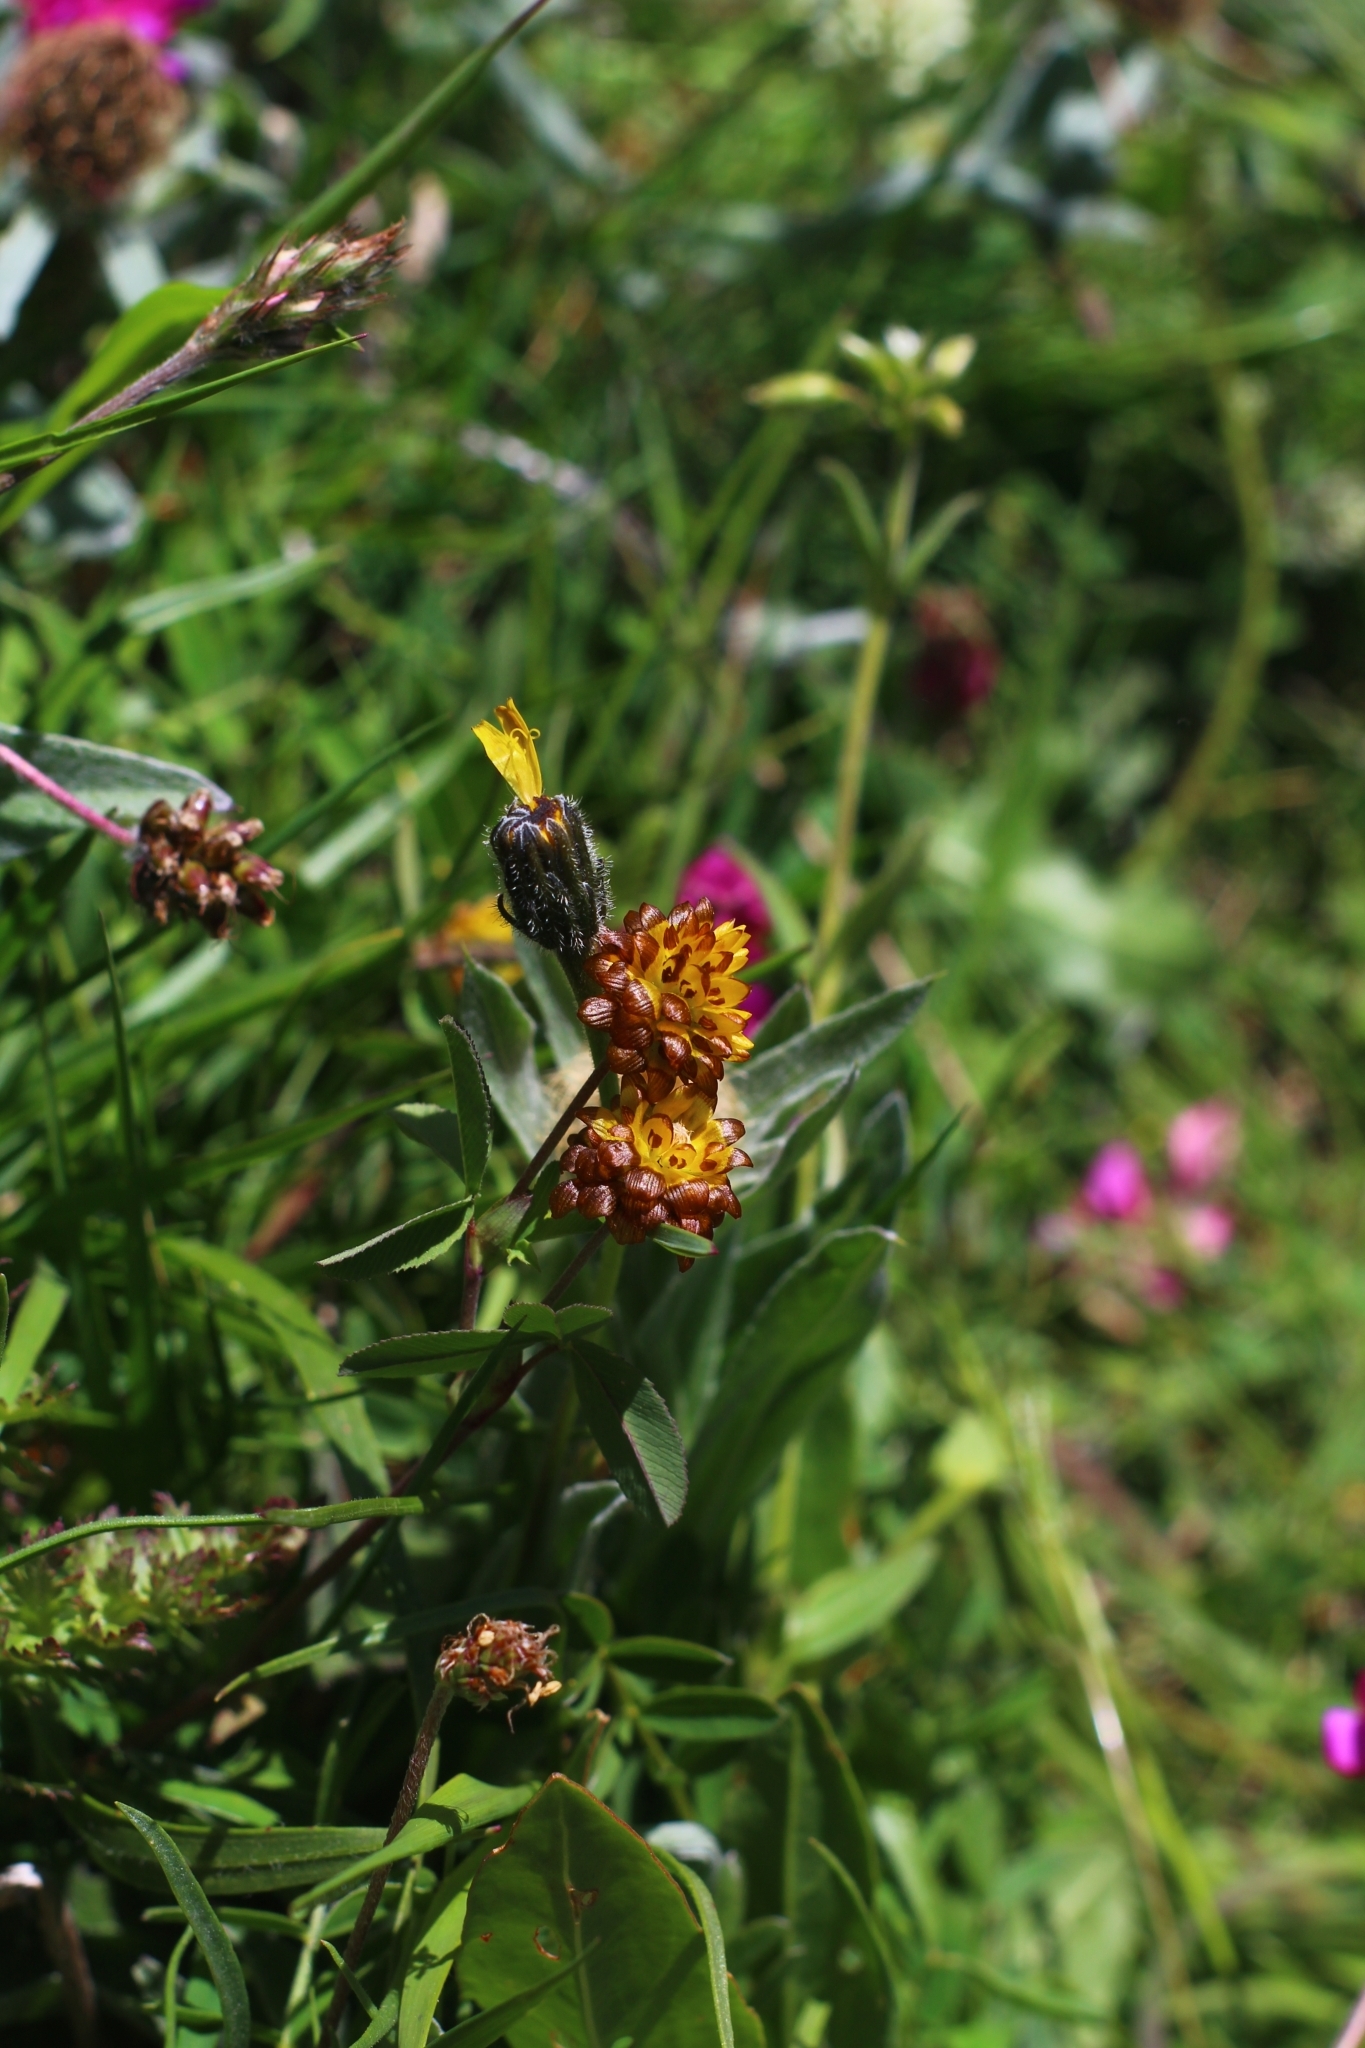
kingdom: Plantae
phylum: Tracheophyta
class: Magnoliopsida
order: Fabales
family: Fabaceae
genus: Trifolium
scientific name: Trifolium badium
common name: Brown clover
